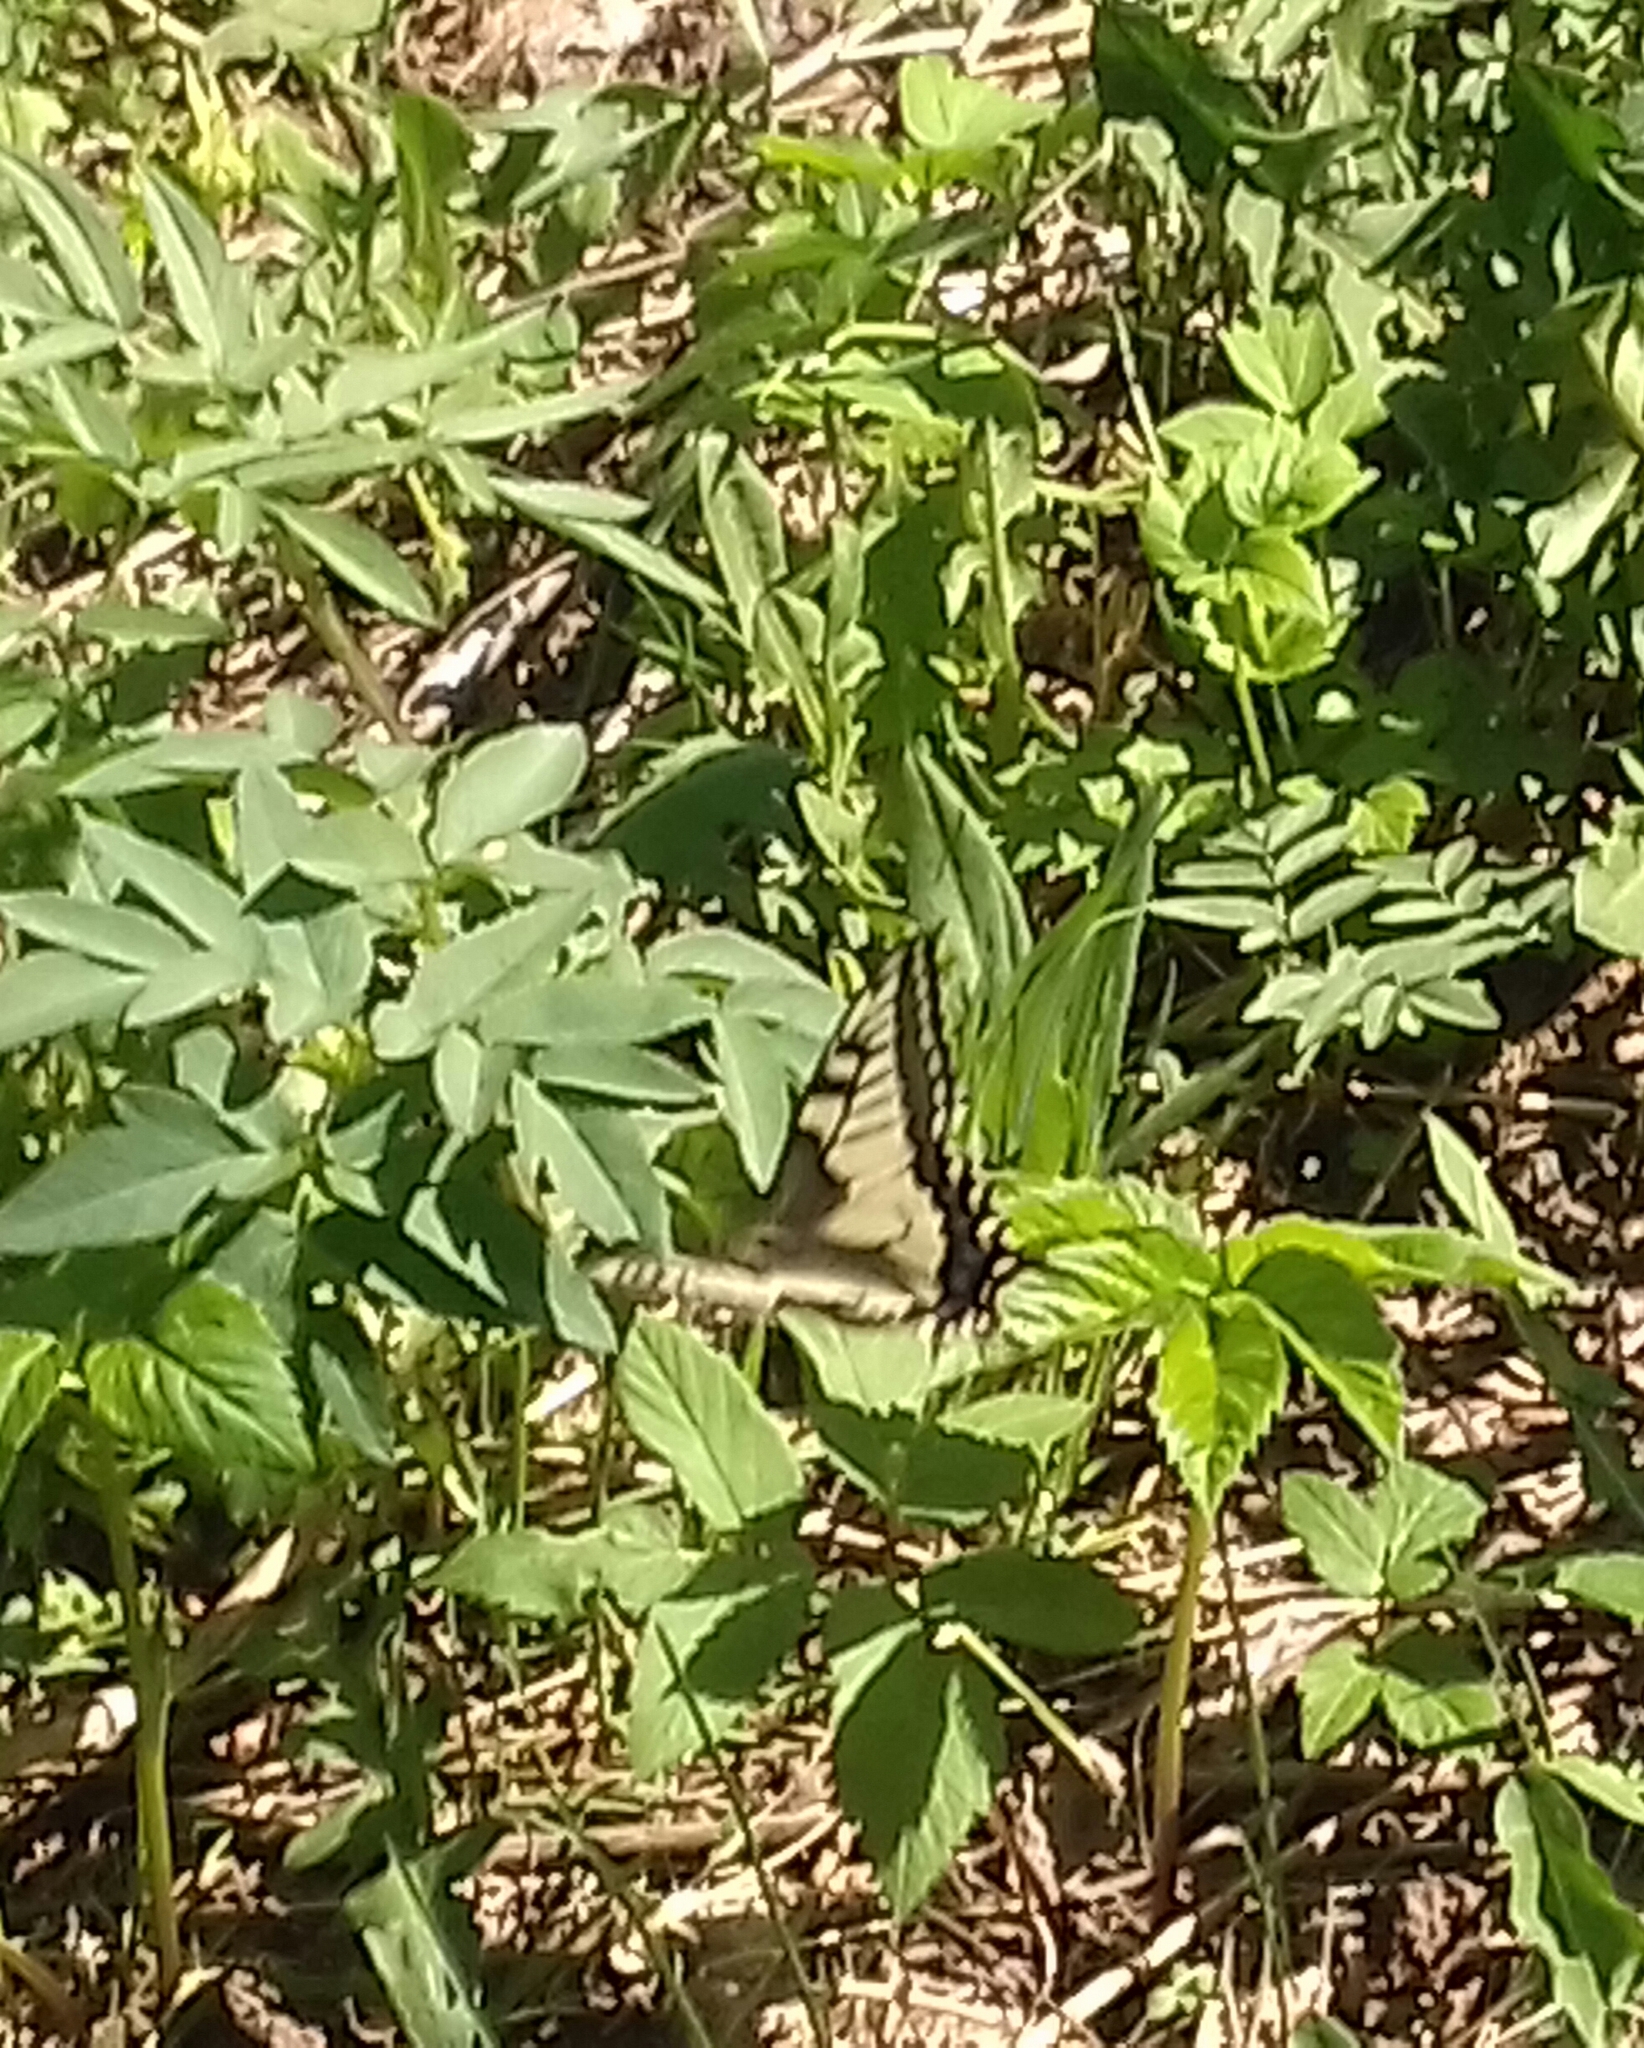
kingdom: Animalia
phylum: Arthropoda
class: Insecta
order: Lepidoptera
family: Papilionidae
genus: Papilio
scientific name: Papilio machaon
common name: Swallowtail
